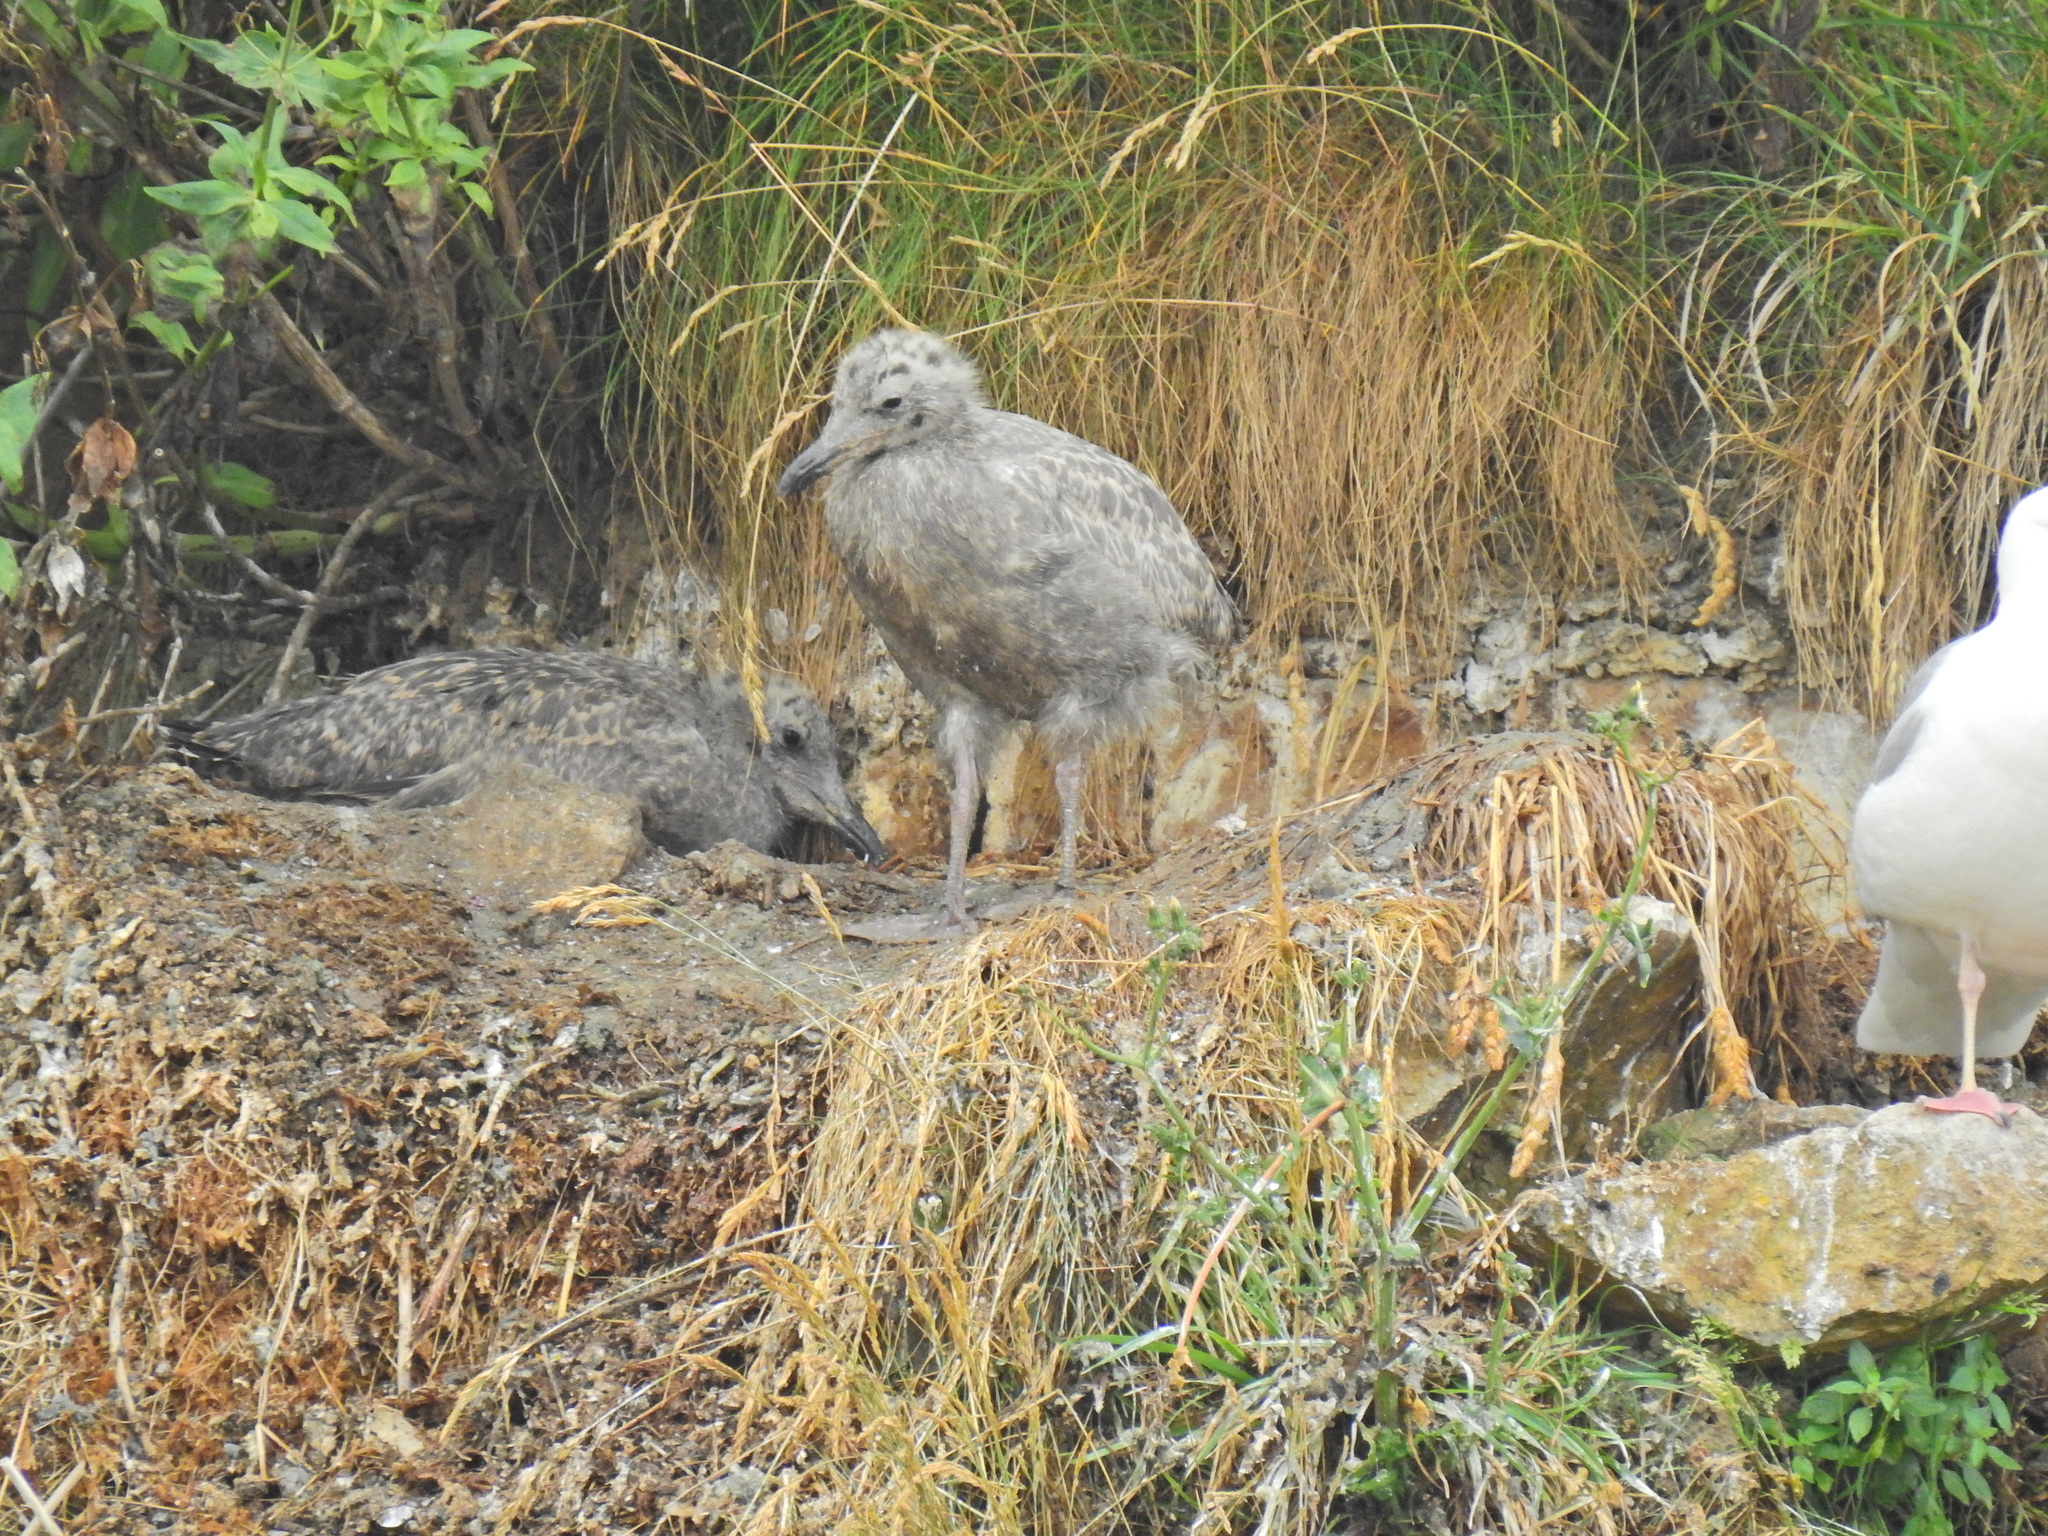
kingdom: Animalia
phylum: Chordata
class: Aves
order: Charadriiformes
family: Laridae
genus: Larus
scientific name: Larus argentatus
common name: Herring gull
